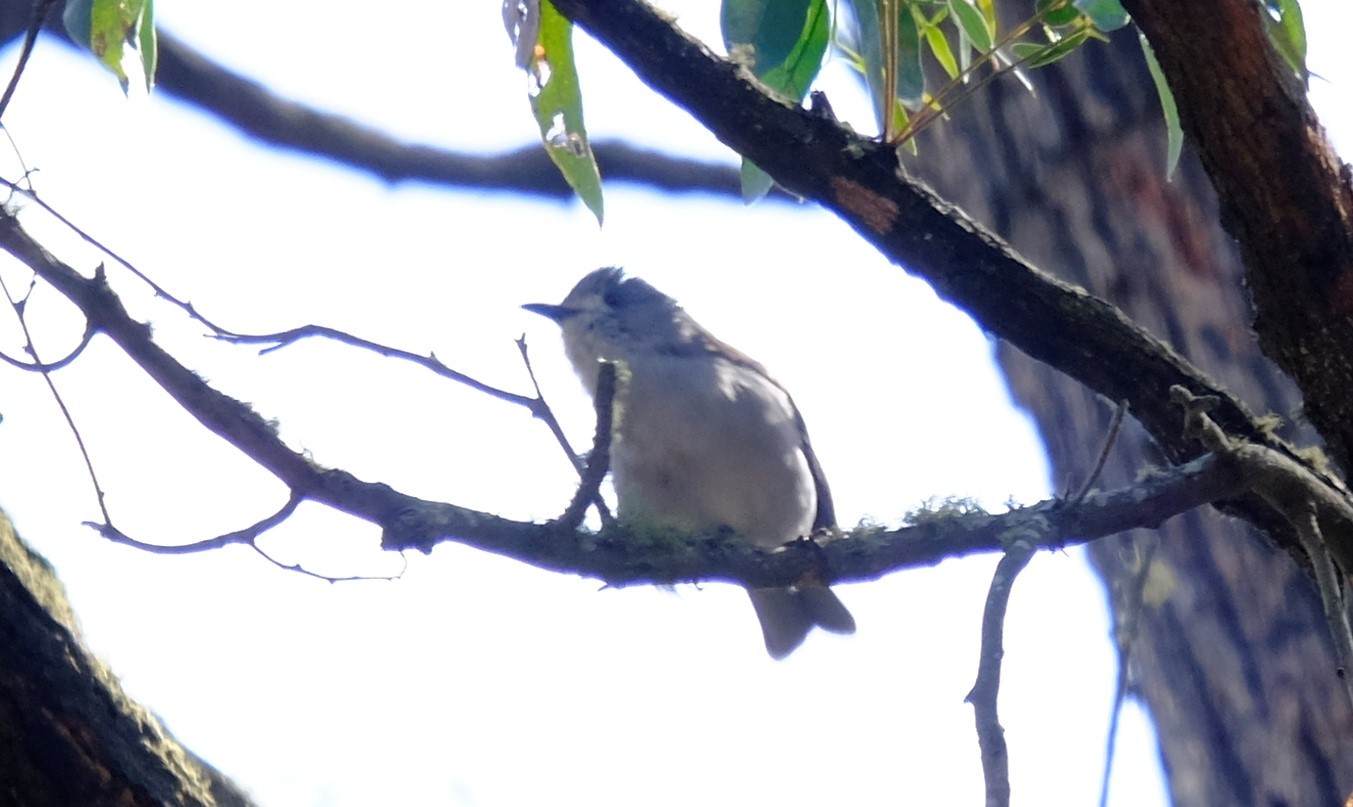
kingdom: Animalia
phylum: Chordata
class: Aves
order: Passeriformes
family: Pachycephalidae
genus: Colluricincla
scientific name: Colluricincla harmonica
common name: Grey shrikethrush
